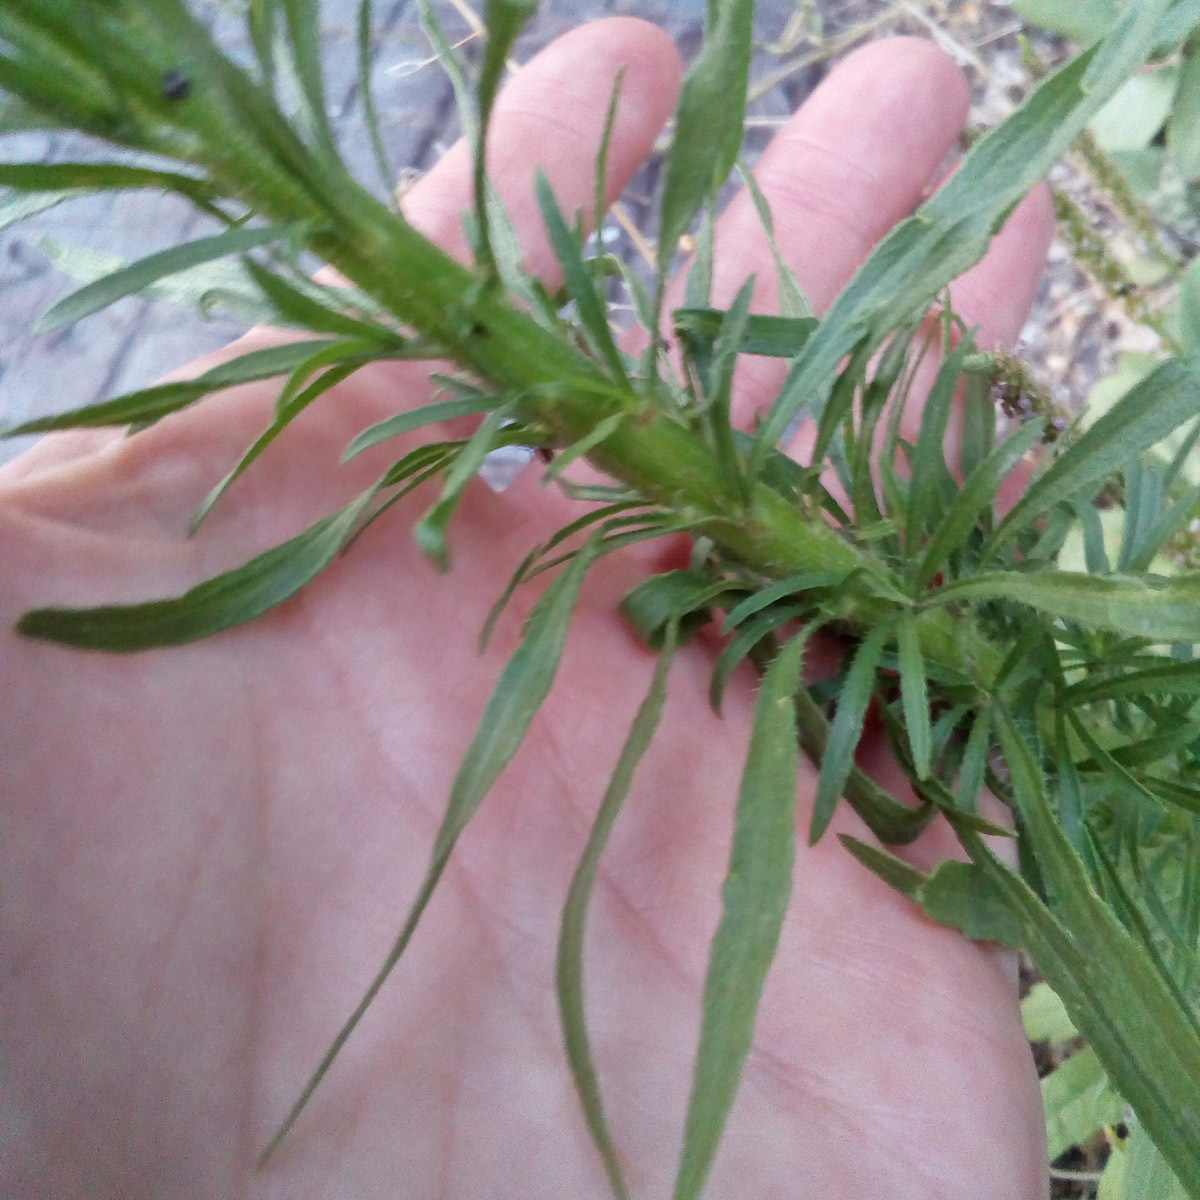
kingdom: Plantae
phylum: Tracheophyta
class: Magnoliopsida
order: Asterales
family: Asteraceae
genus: Erigeron
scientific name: Erigeron canadensis
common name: Canadian fleabane
